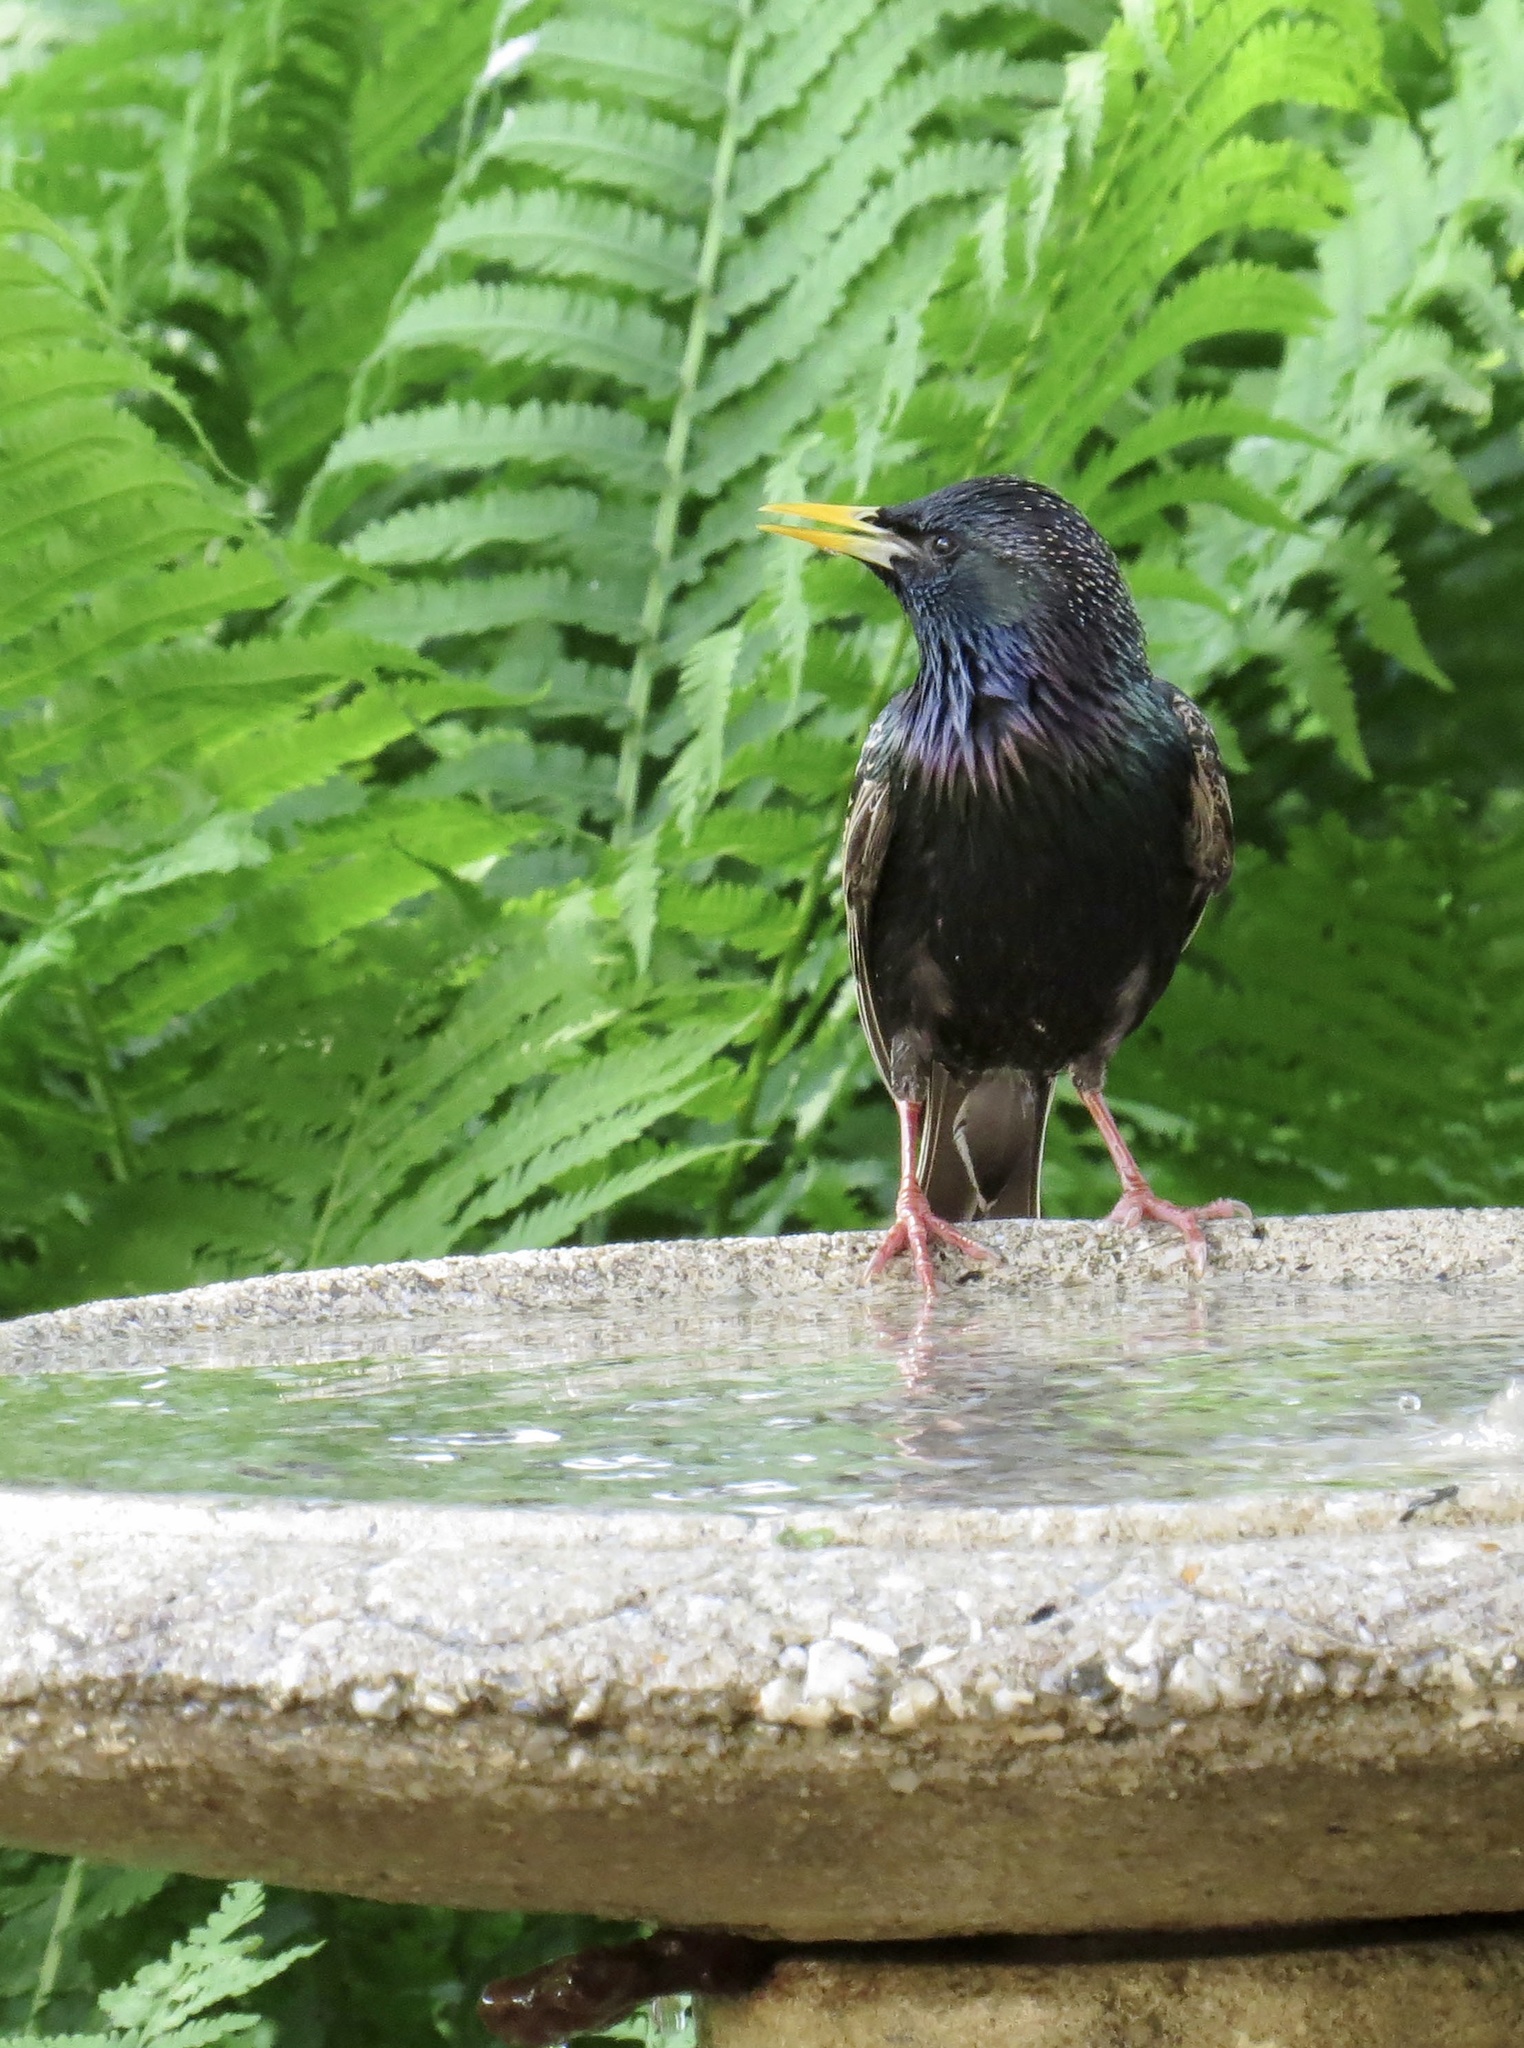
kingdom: Animalia
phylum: Chordata
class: Aves
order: Passeriformes
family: Sturnidae
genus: Sturnus
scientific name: Sturnus vulgaris
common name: Common starling
